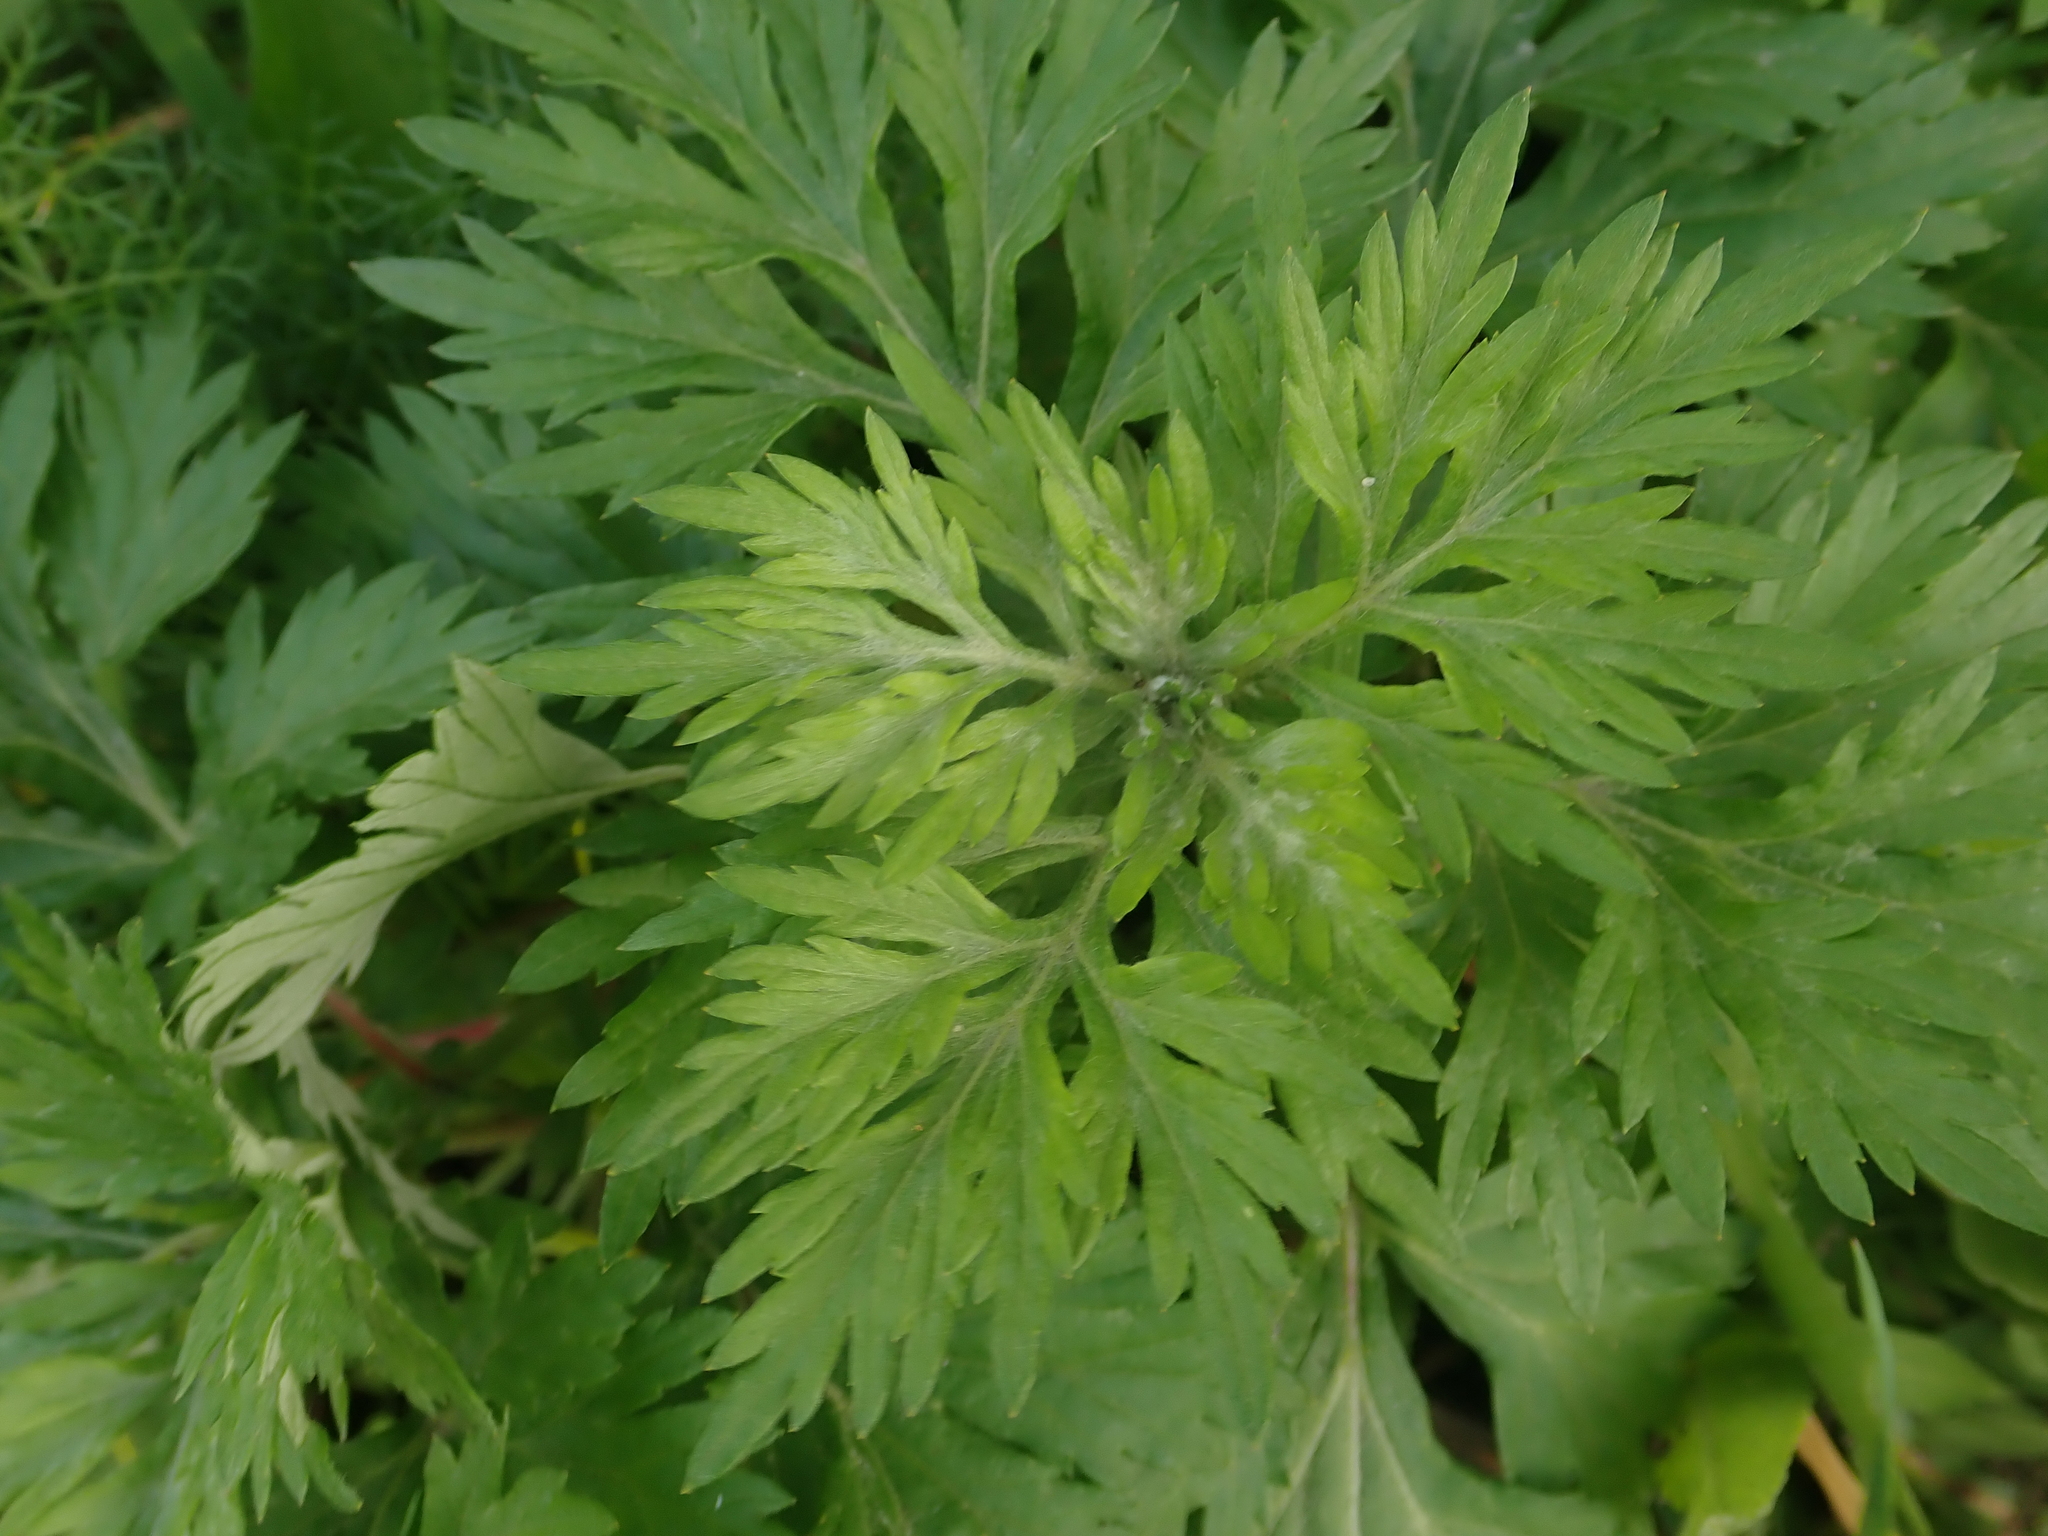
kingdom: Plantae
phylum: Tracheophyta
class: Magnoliopsida
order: Asterales
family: Asteraceae
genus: Artemisia
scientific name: Artemisia vulgaris
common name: Mugwort
